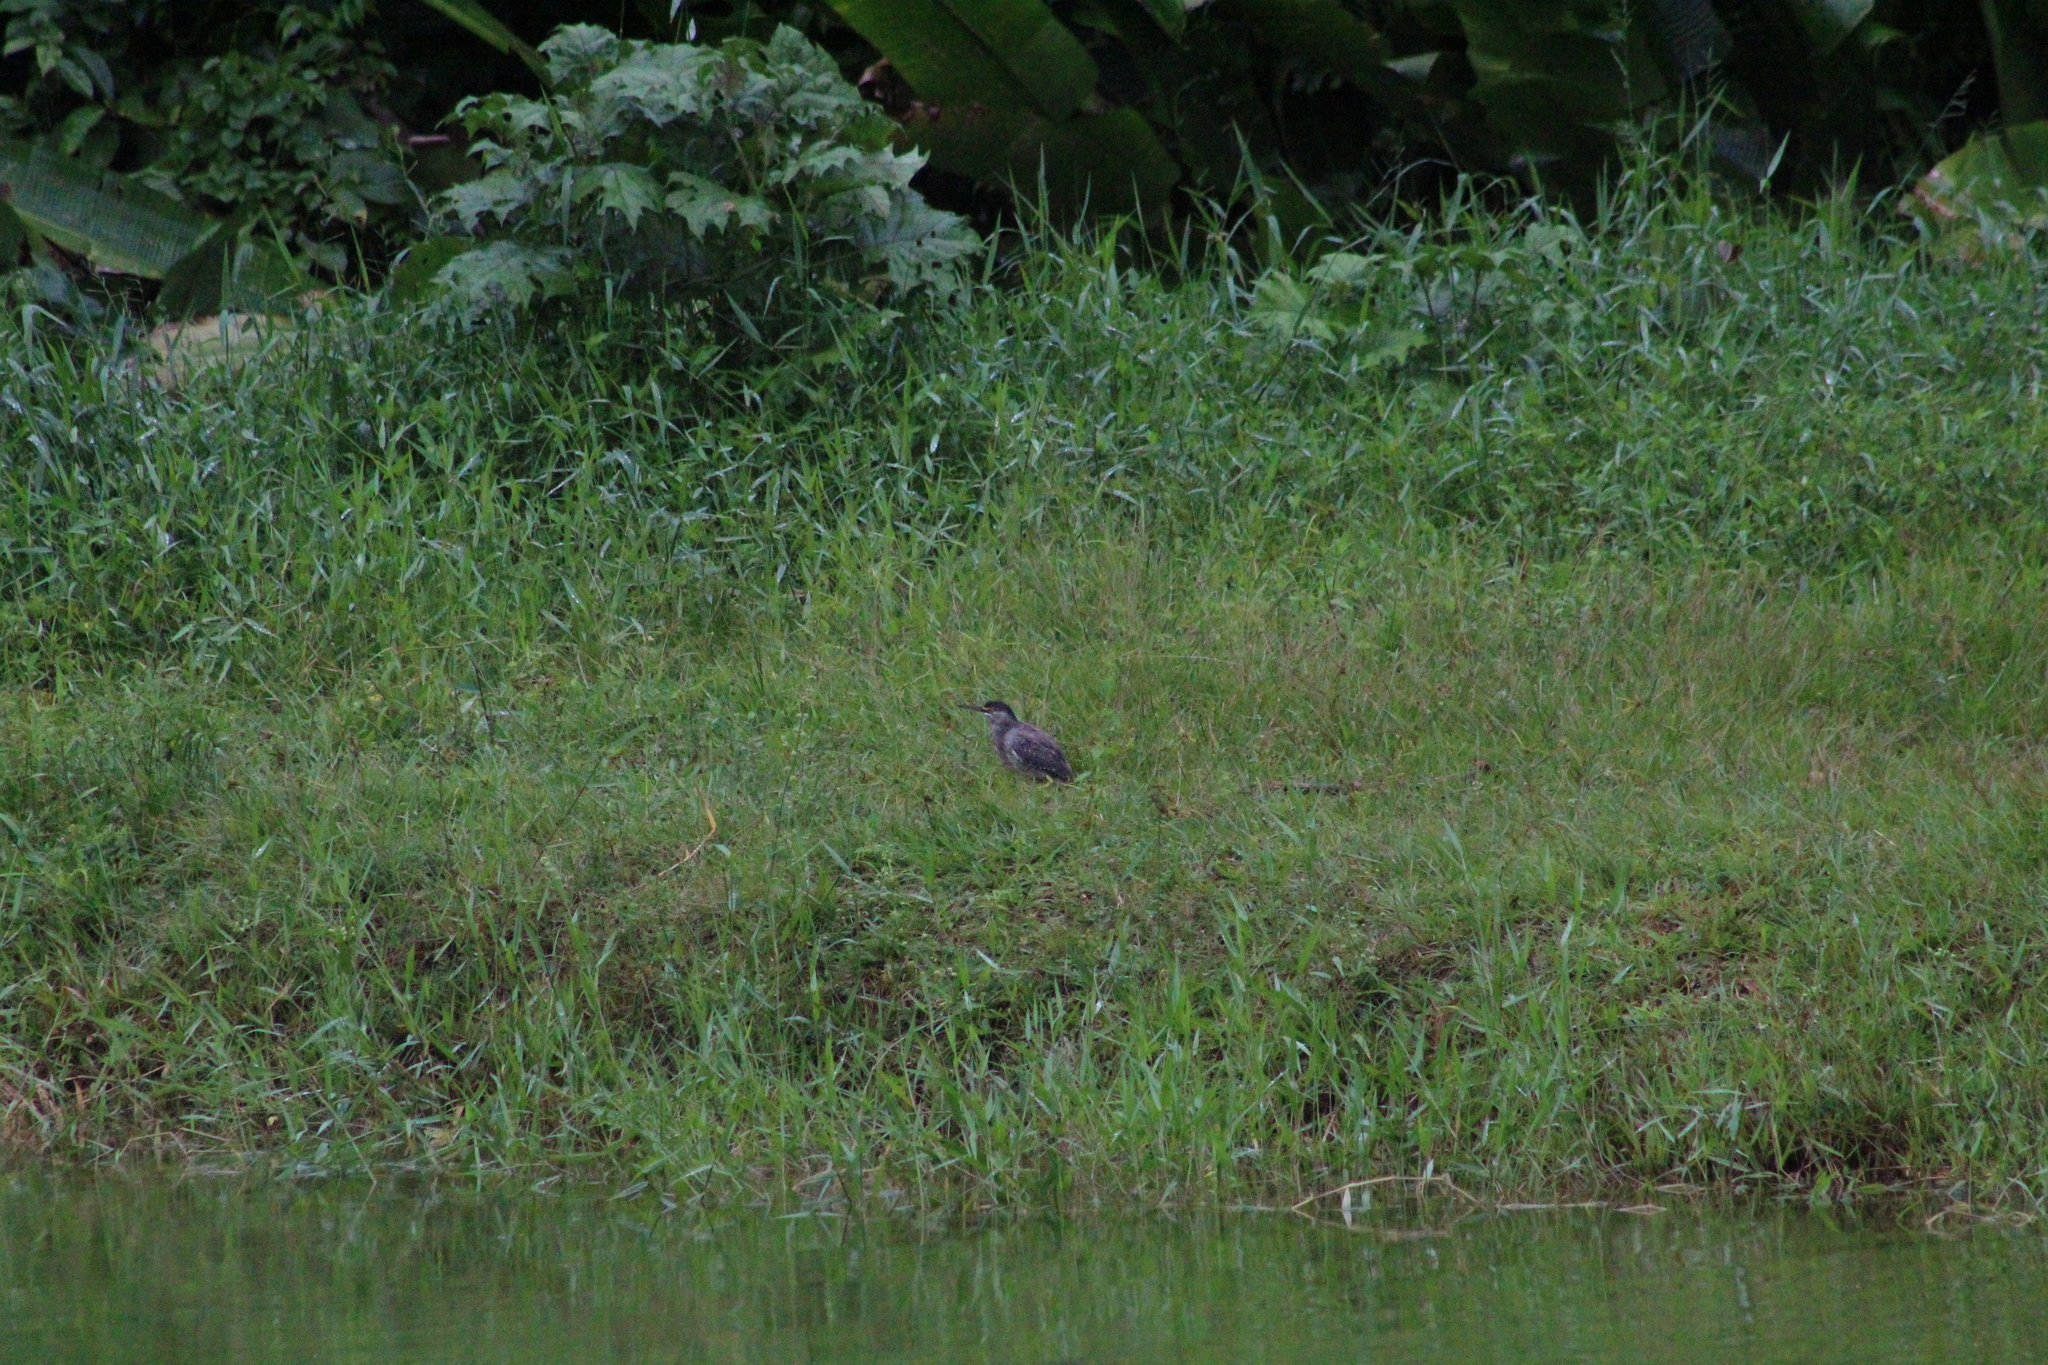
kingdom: Animalia
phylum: Chordata
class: Aves
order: Pelecaniformes
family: Ardeidae
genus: Butorides
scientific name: Butorides striata
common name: Striated heron
